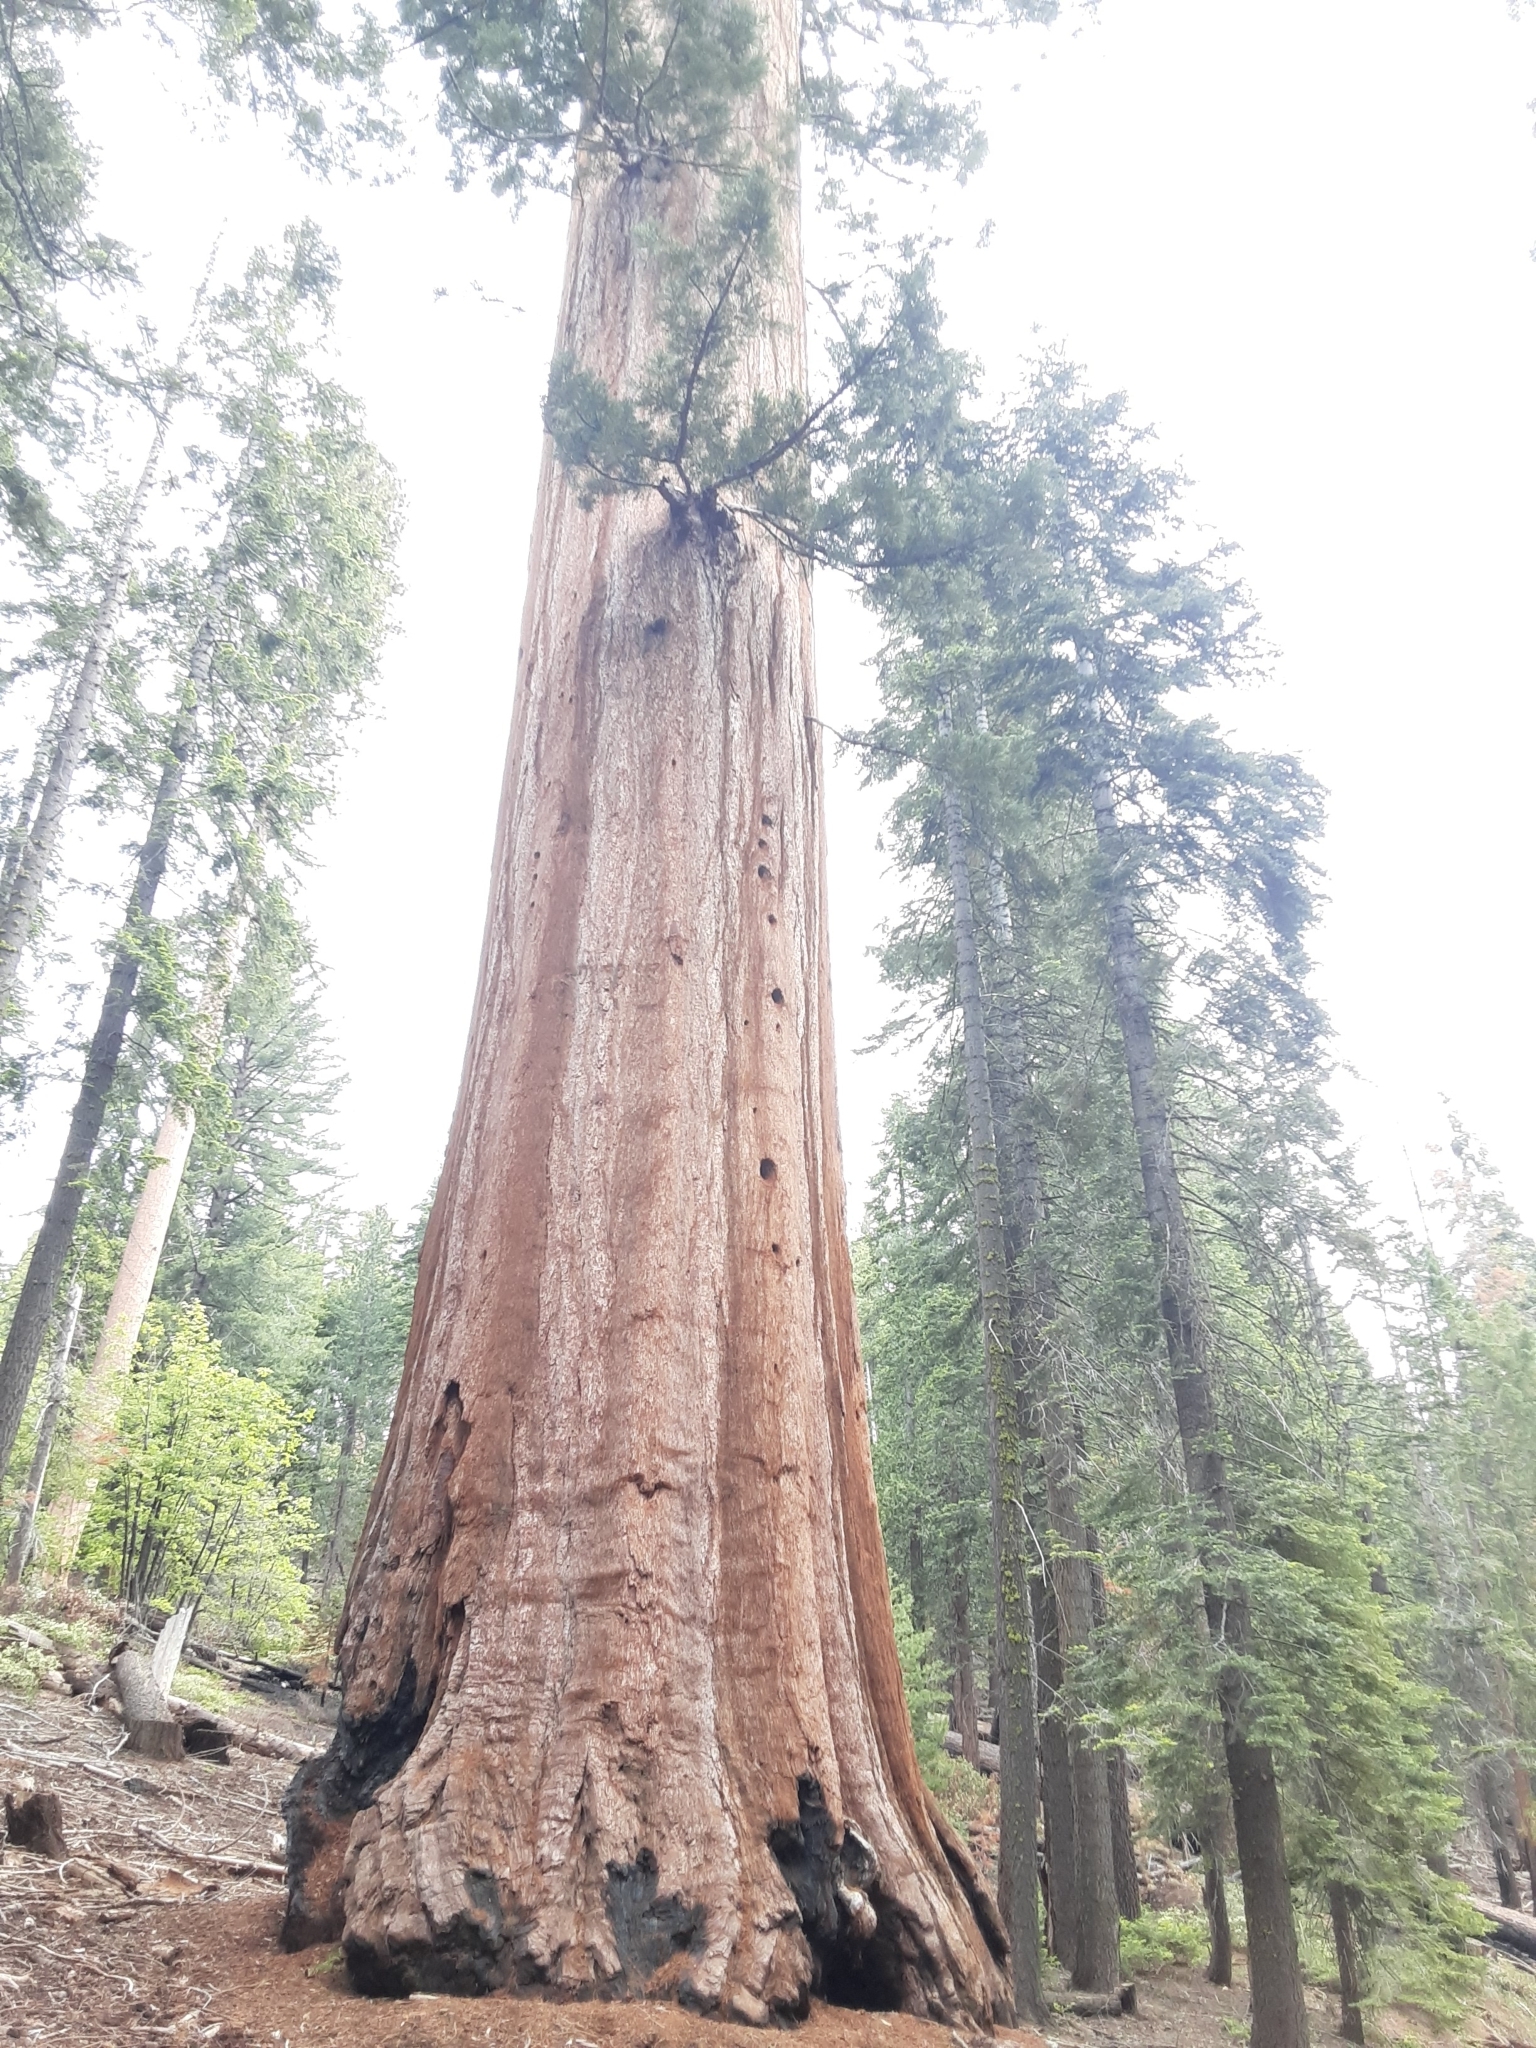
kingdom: Plantae
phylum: Tracheophyta
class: Pinopsida
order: Pinales
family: Cupressaceae
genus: Sequoiadendron
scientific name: Sequoiadendron giganteum
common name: Wellingtonia
